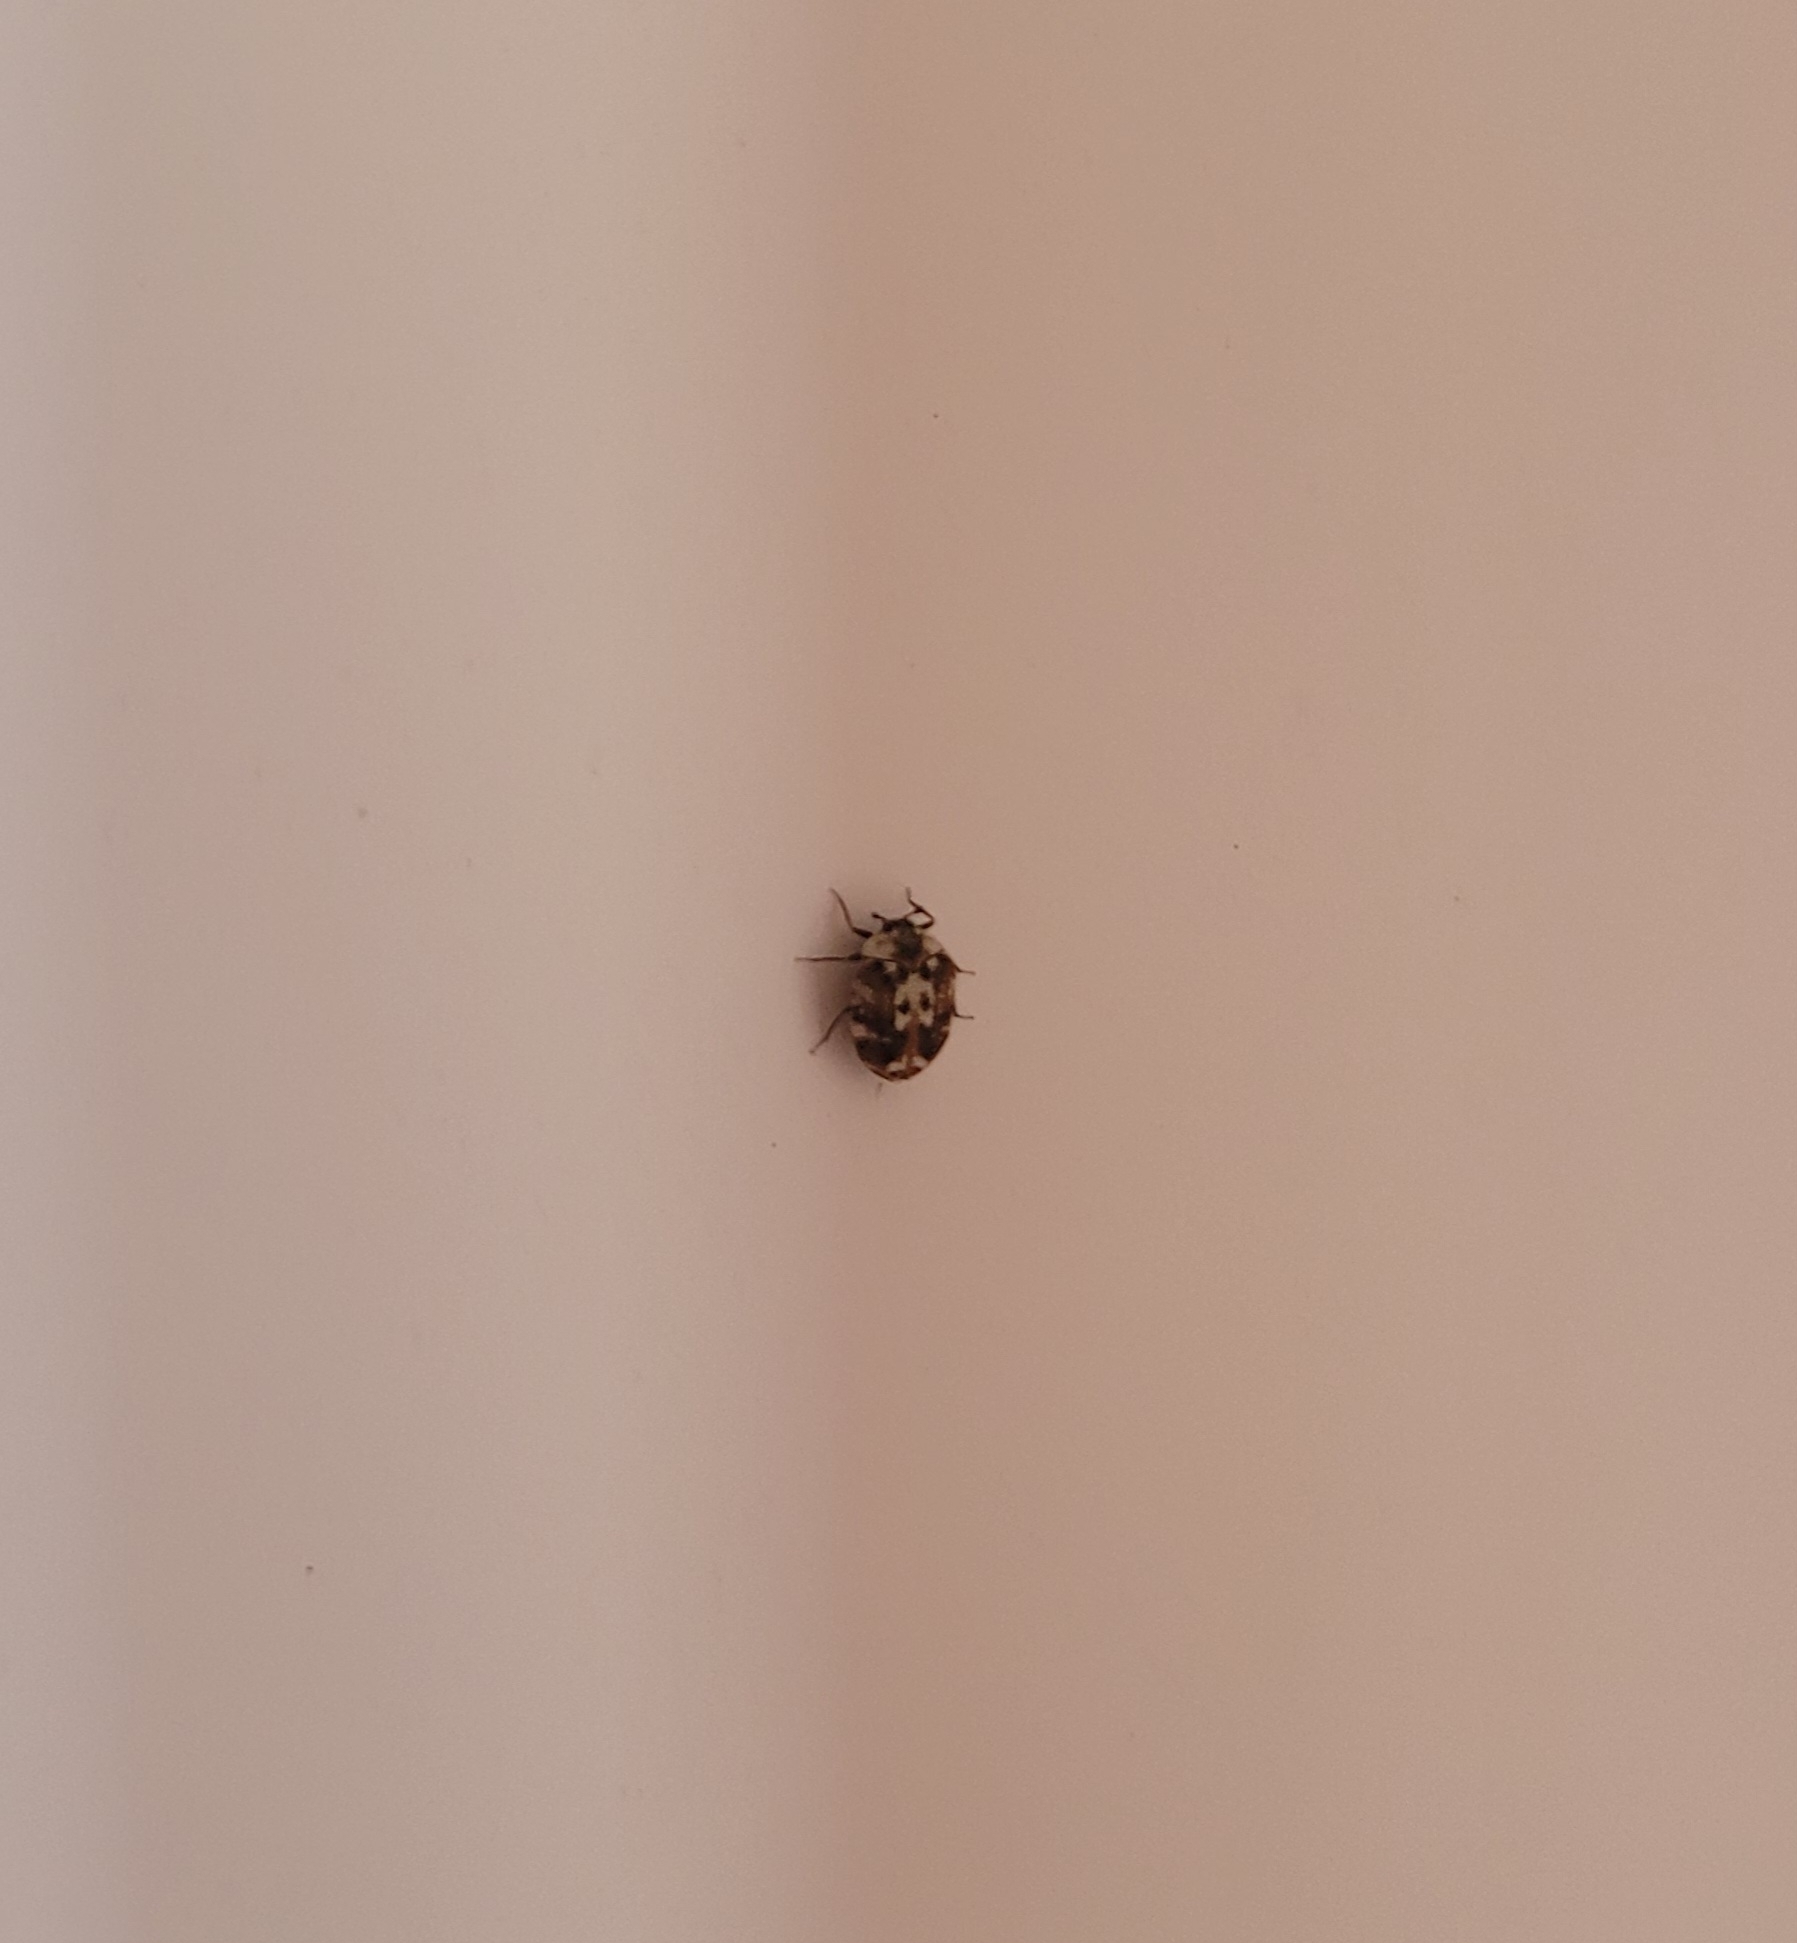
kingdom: Animalia
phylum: Arthropoda
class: Insecta
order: Coleoptera
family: Dermestidae
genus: Anthrenus
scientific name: Anthrenus picturatus
